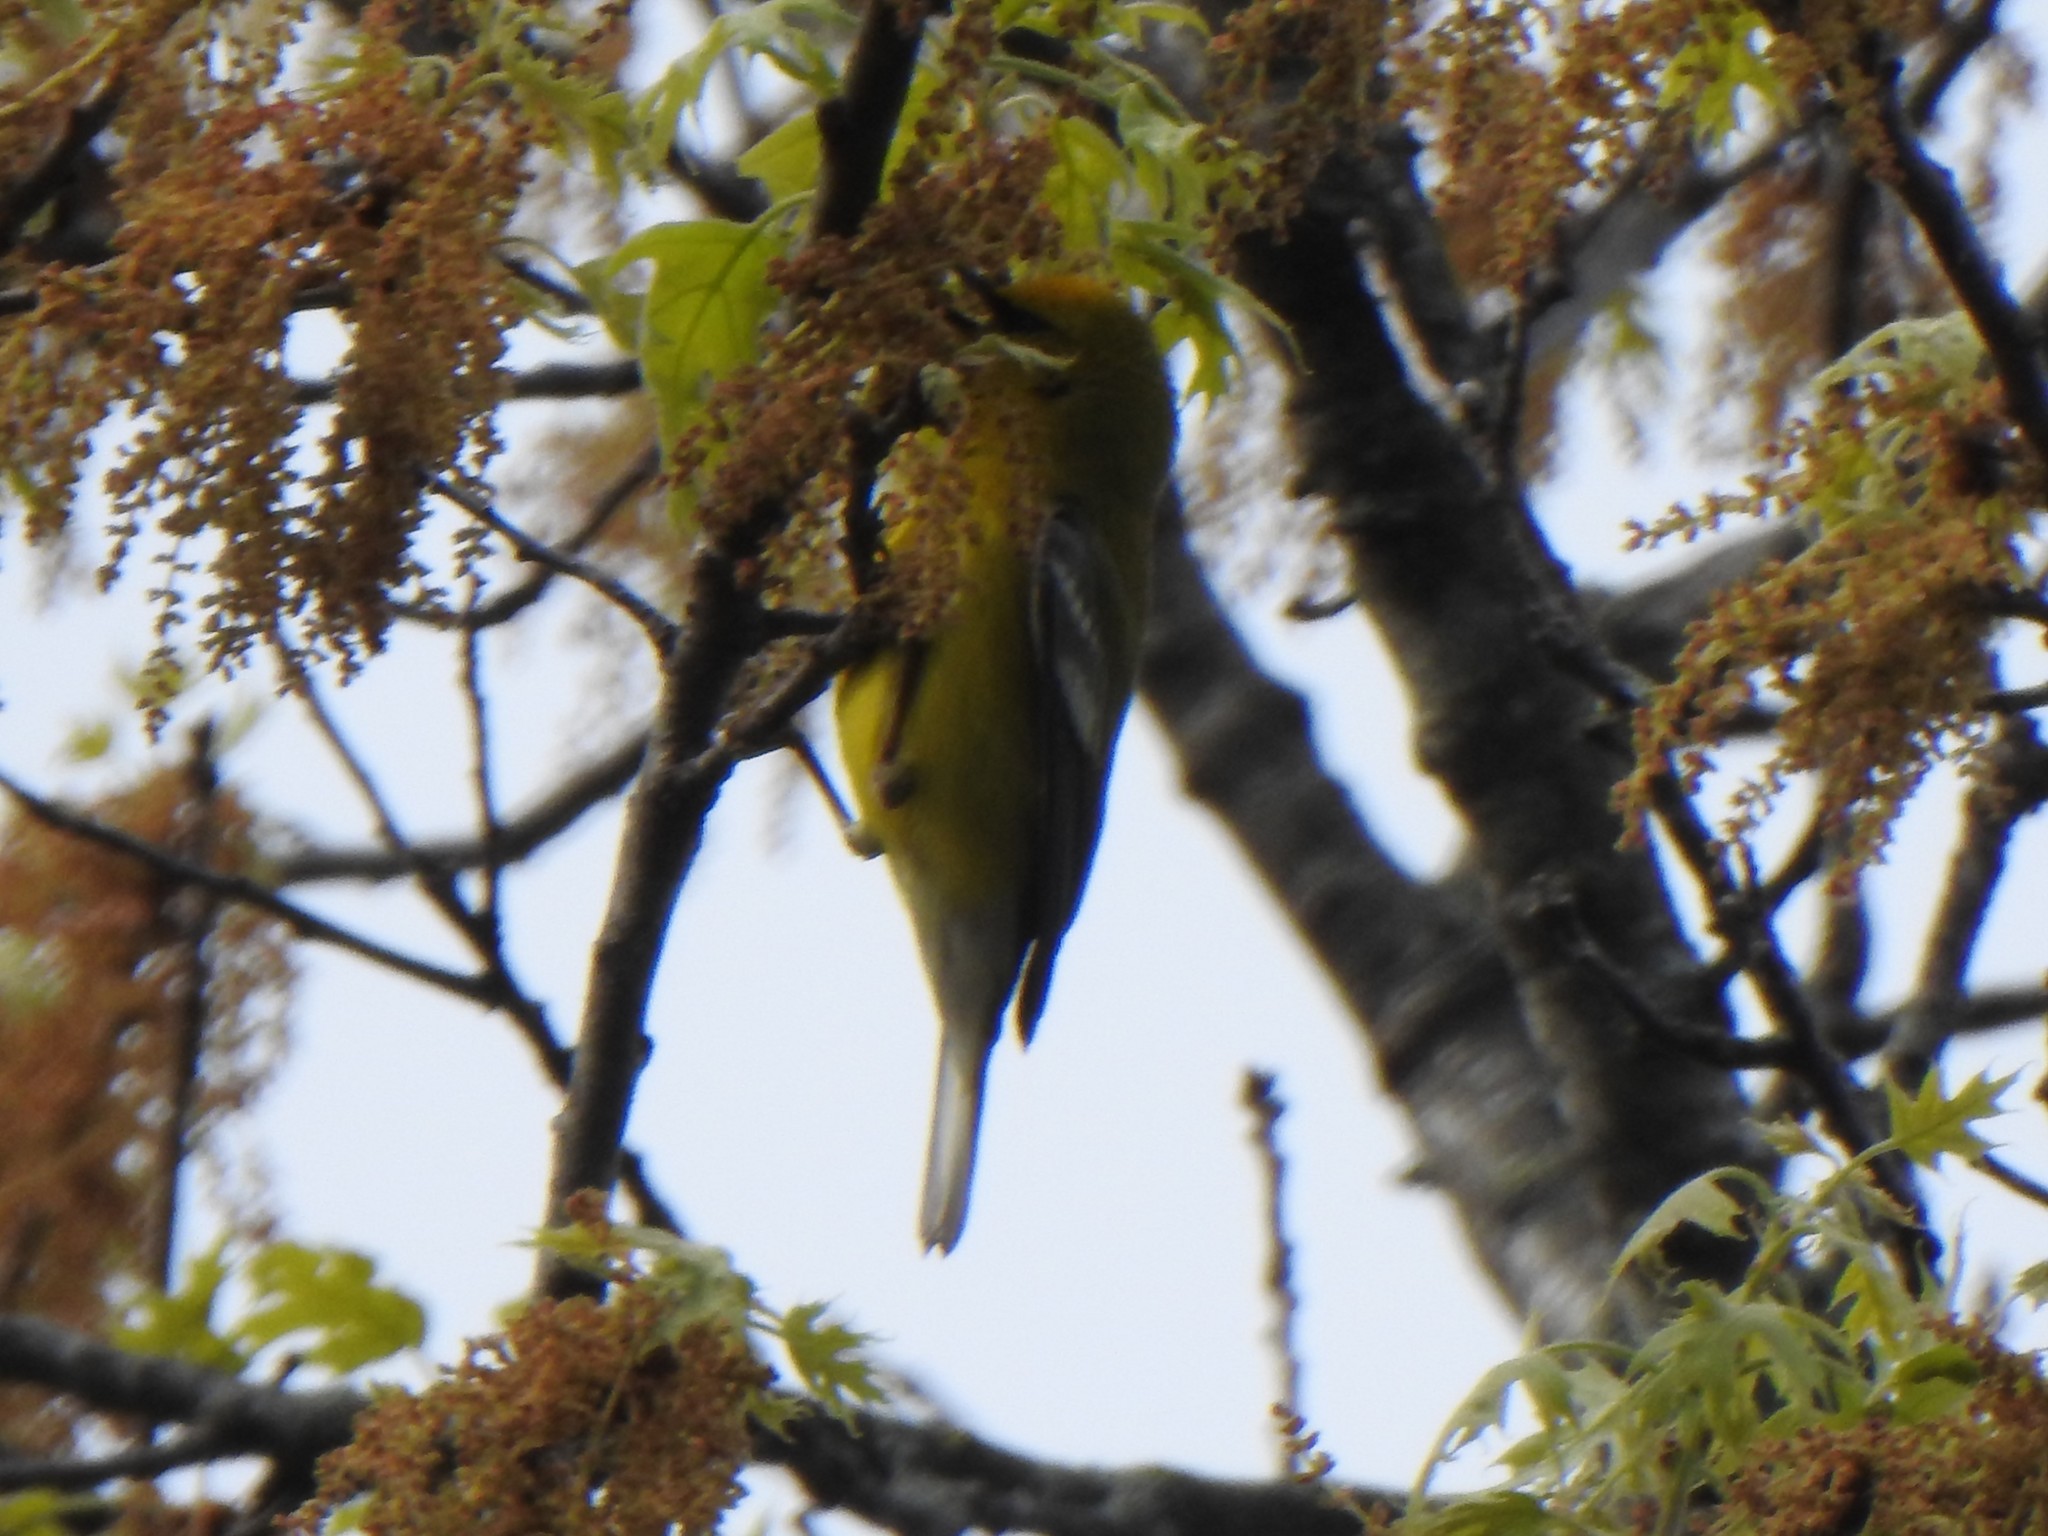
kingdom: Animalia
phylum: Chordata
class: Aves
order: Passeriformes
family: Parulidae
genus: Vermivora
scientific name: Vermivora cyanoptera
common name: Blue-winged warbler
